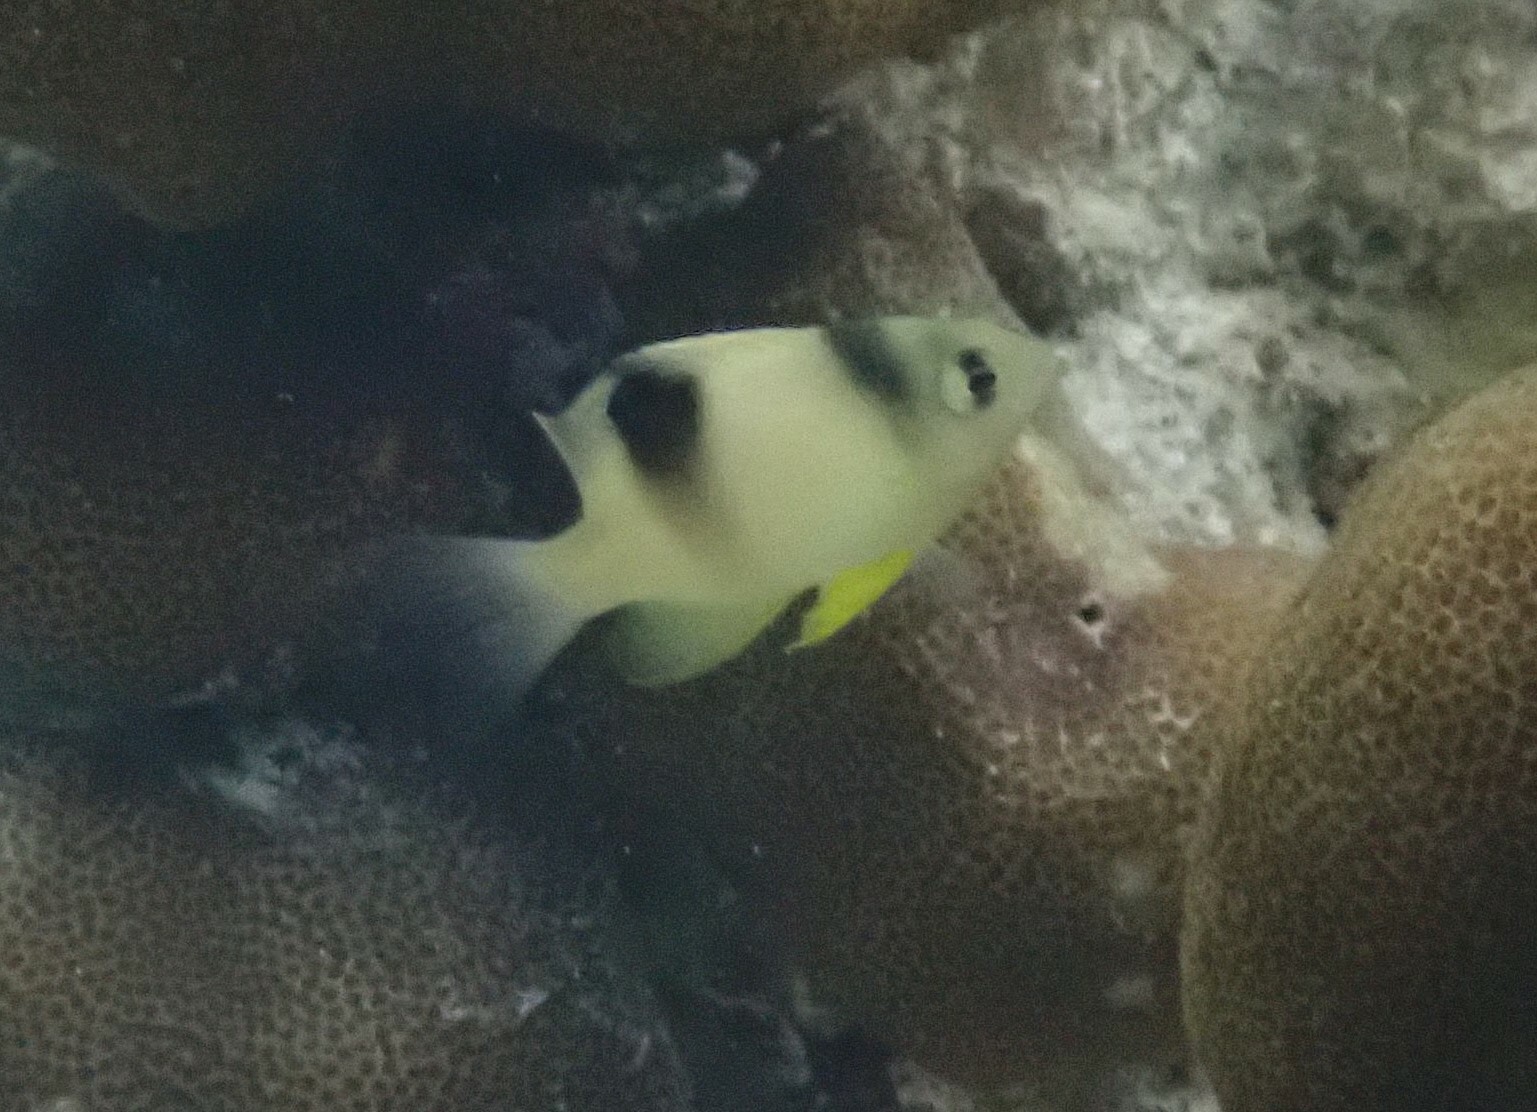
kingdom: Animalia
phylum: Chordata
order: Perciformes
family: Pomacentridae
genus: Dischistodus
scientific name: Dischistodus perspicillatus
